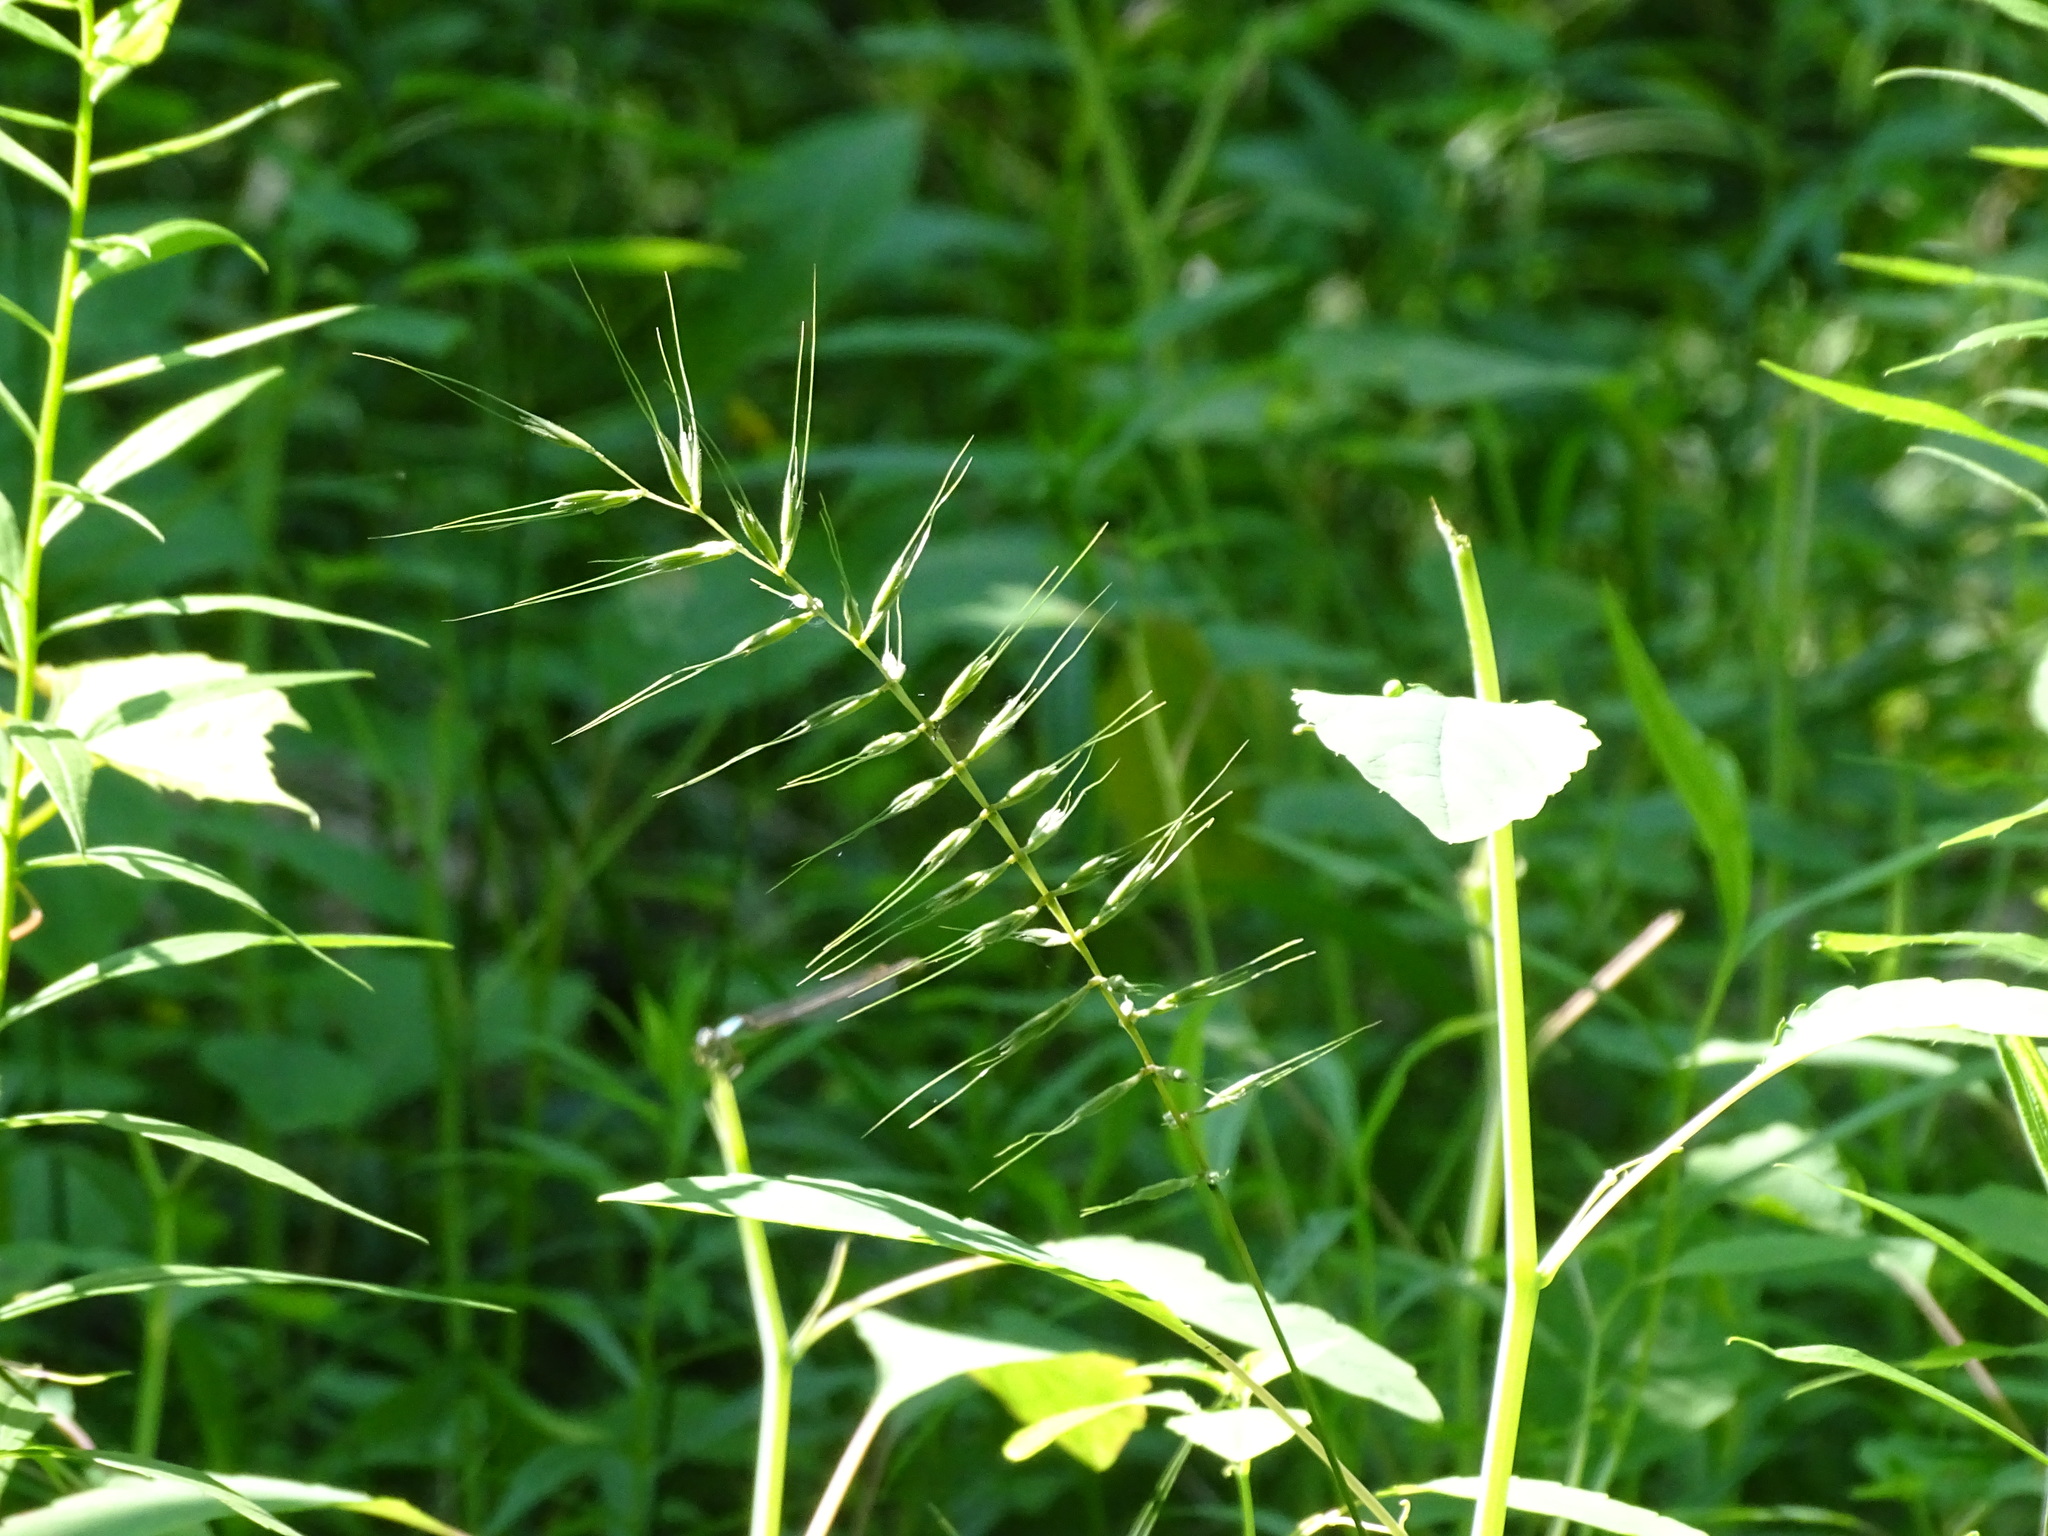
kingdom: Plantae
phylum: Tracheophyta
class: Liliopsida
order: Poales
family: Poaceae
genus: Elymus
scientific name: Elymus hystrix
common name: Bottlebrush grass
